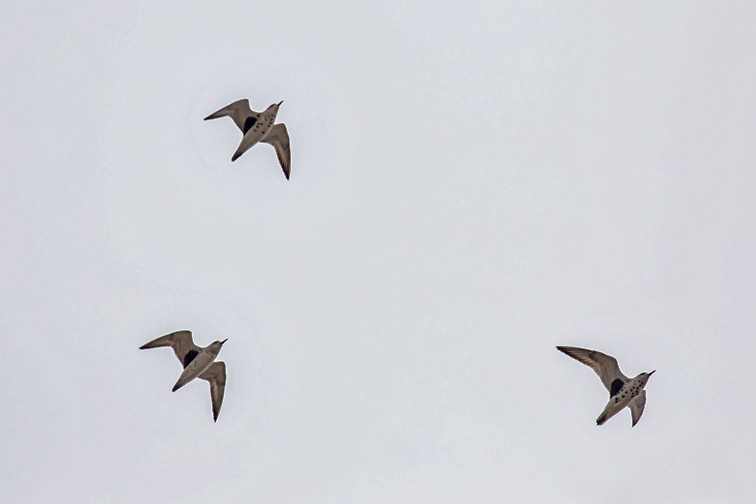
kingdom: Animalia
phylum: Chordata
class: Aves
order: Charadriiformes
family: Charadriidae
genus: Pluvialis
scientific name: Pluvialis squatarola
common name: Grey plover
